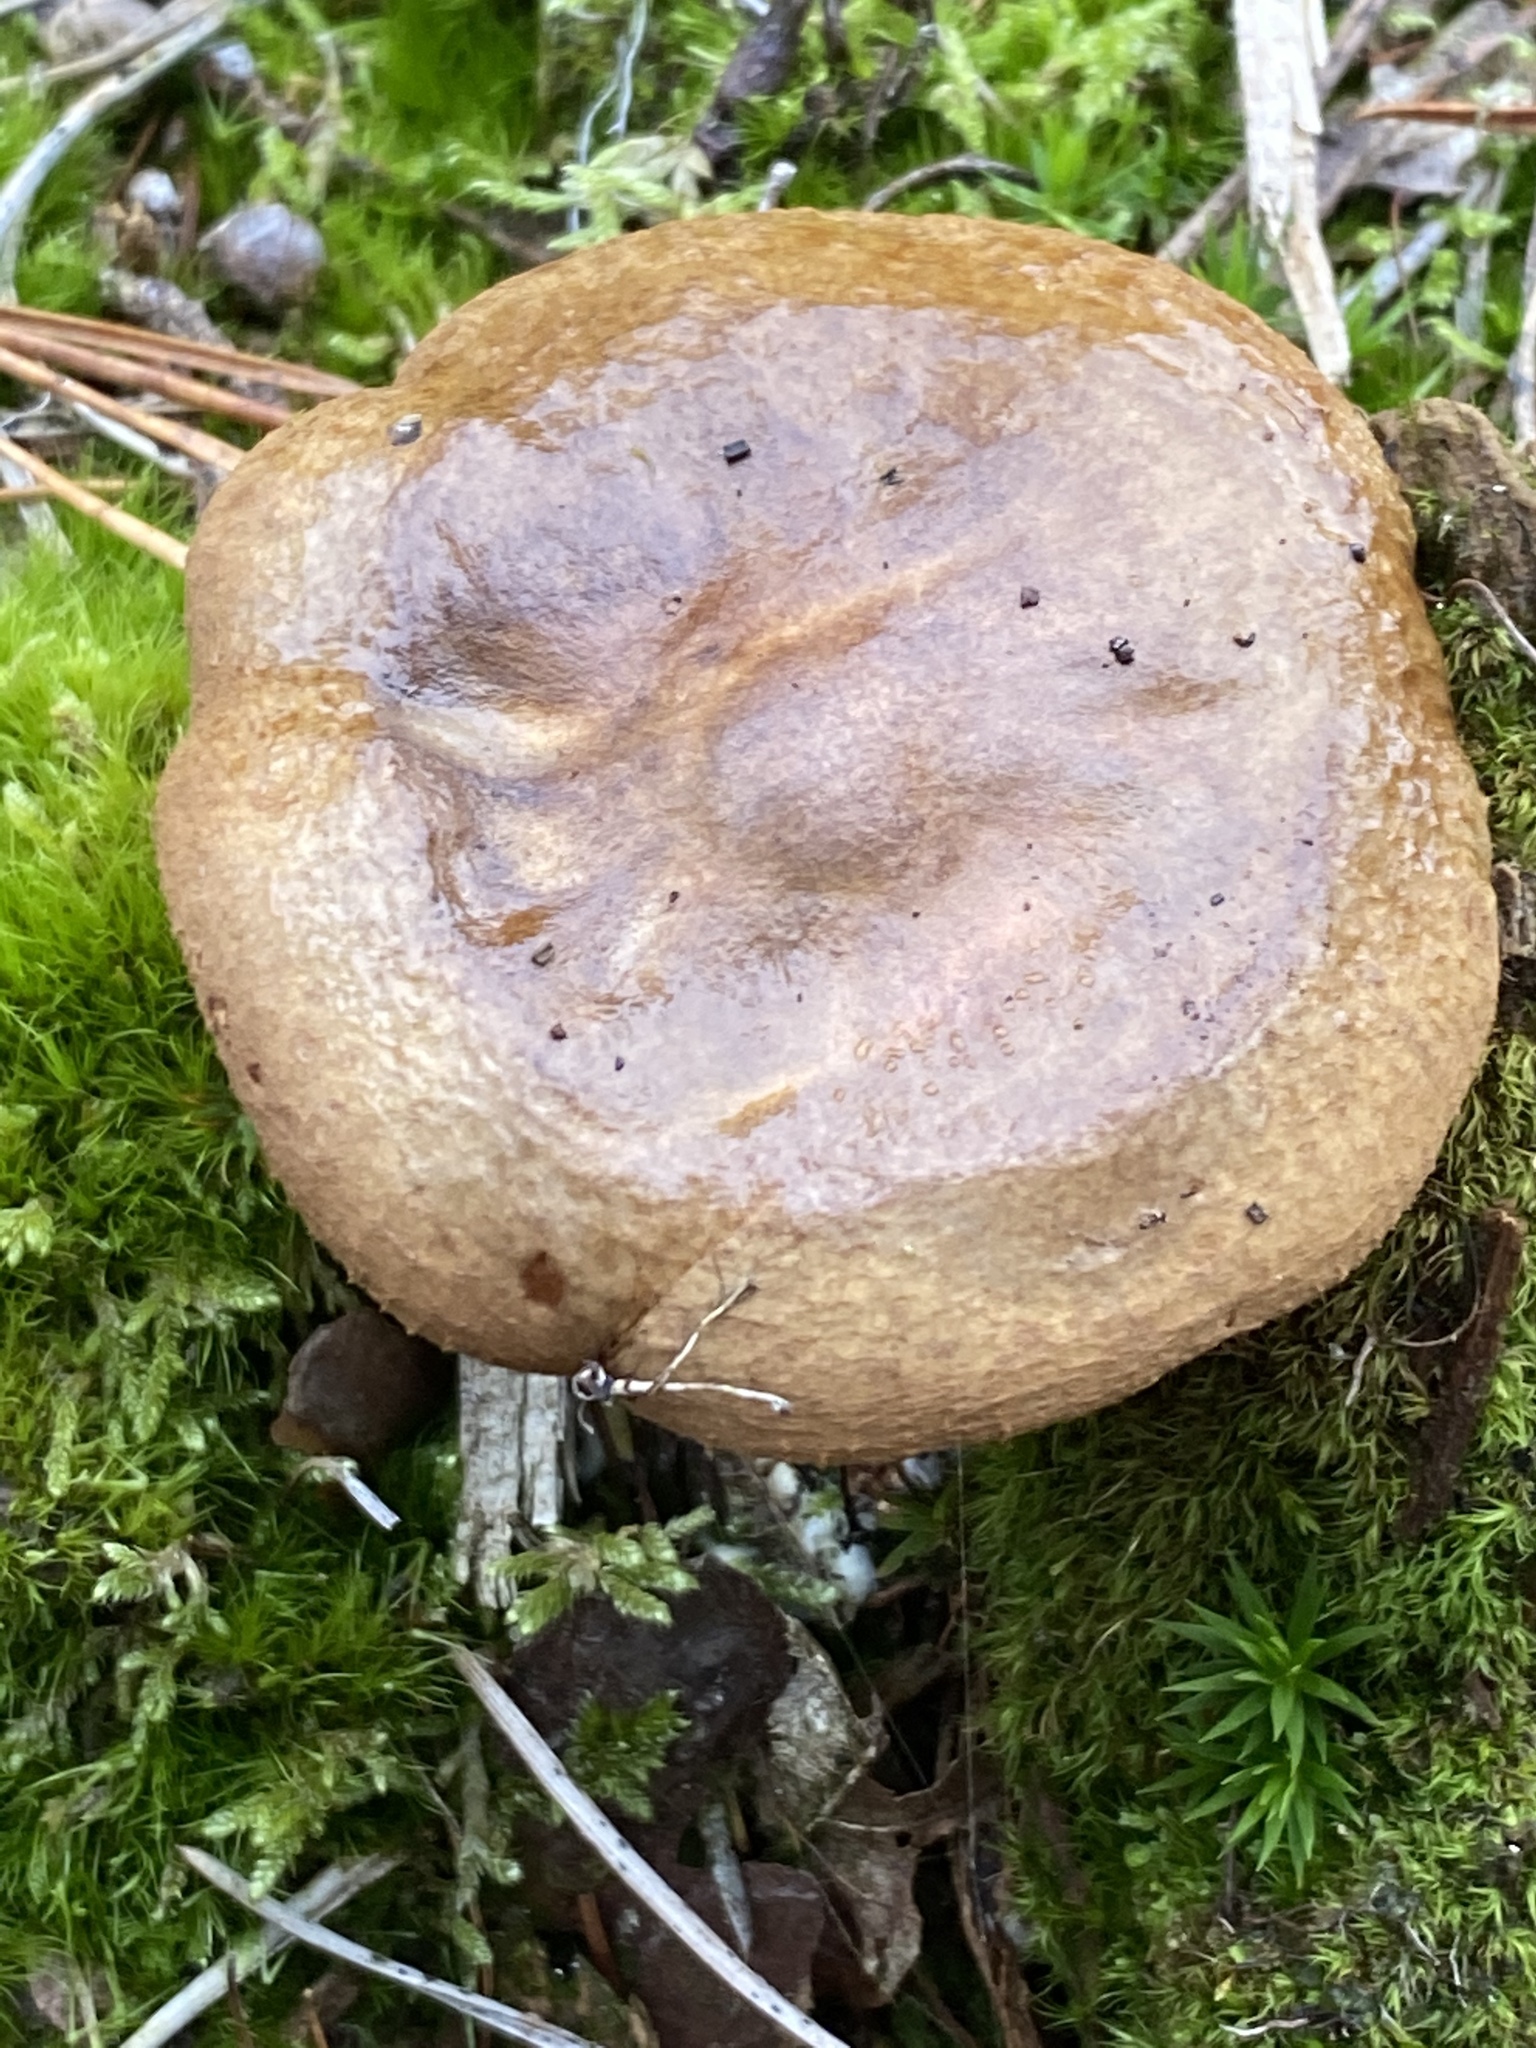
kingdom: Fungi
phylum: Basidiomycota
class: Agaricomycetes
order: Boletales
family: Paxillaceae
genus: Paxillus
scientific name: Paxillus involutus
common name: Brown roll rim
